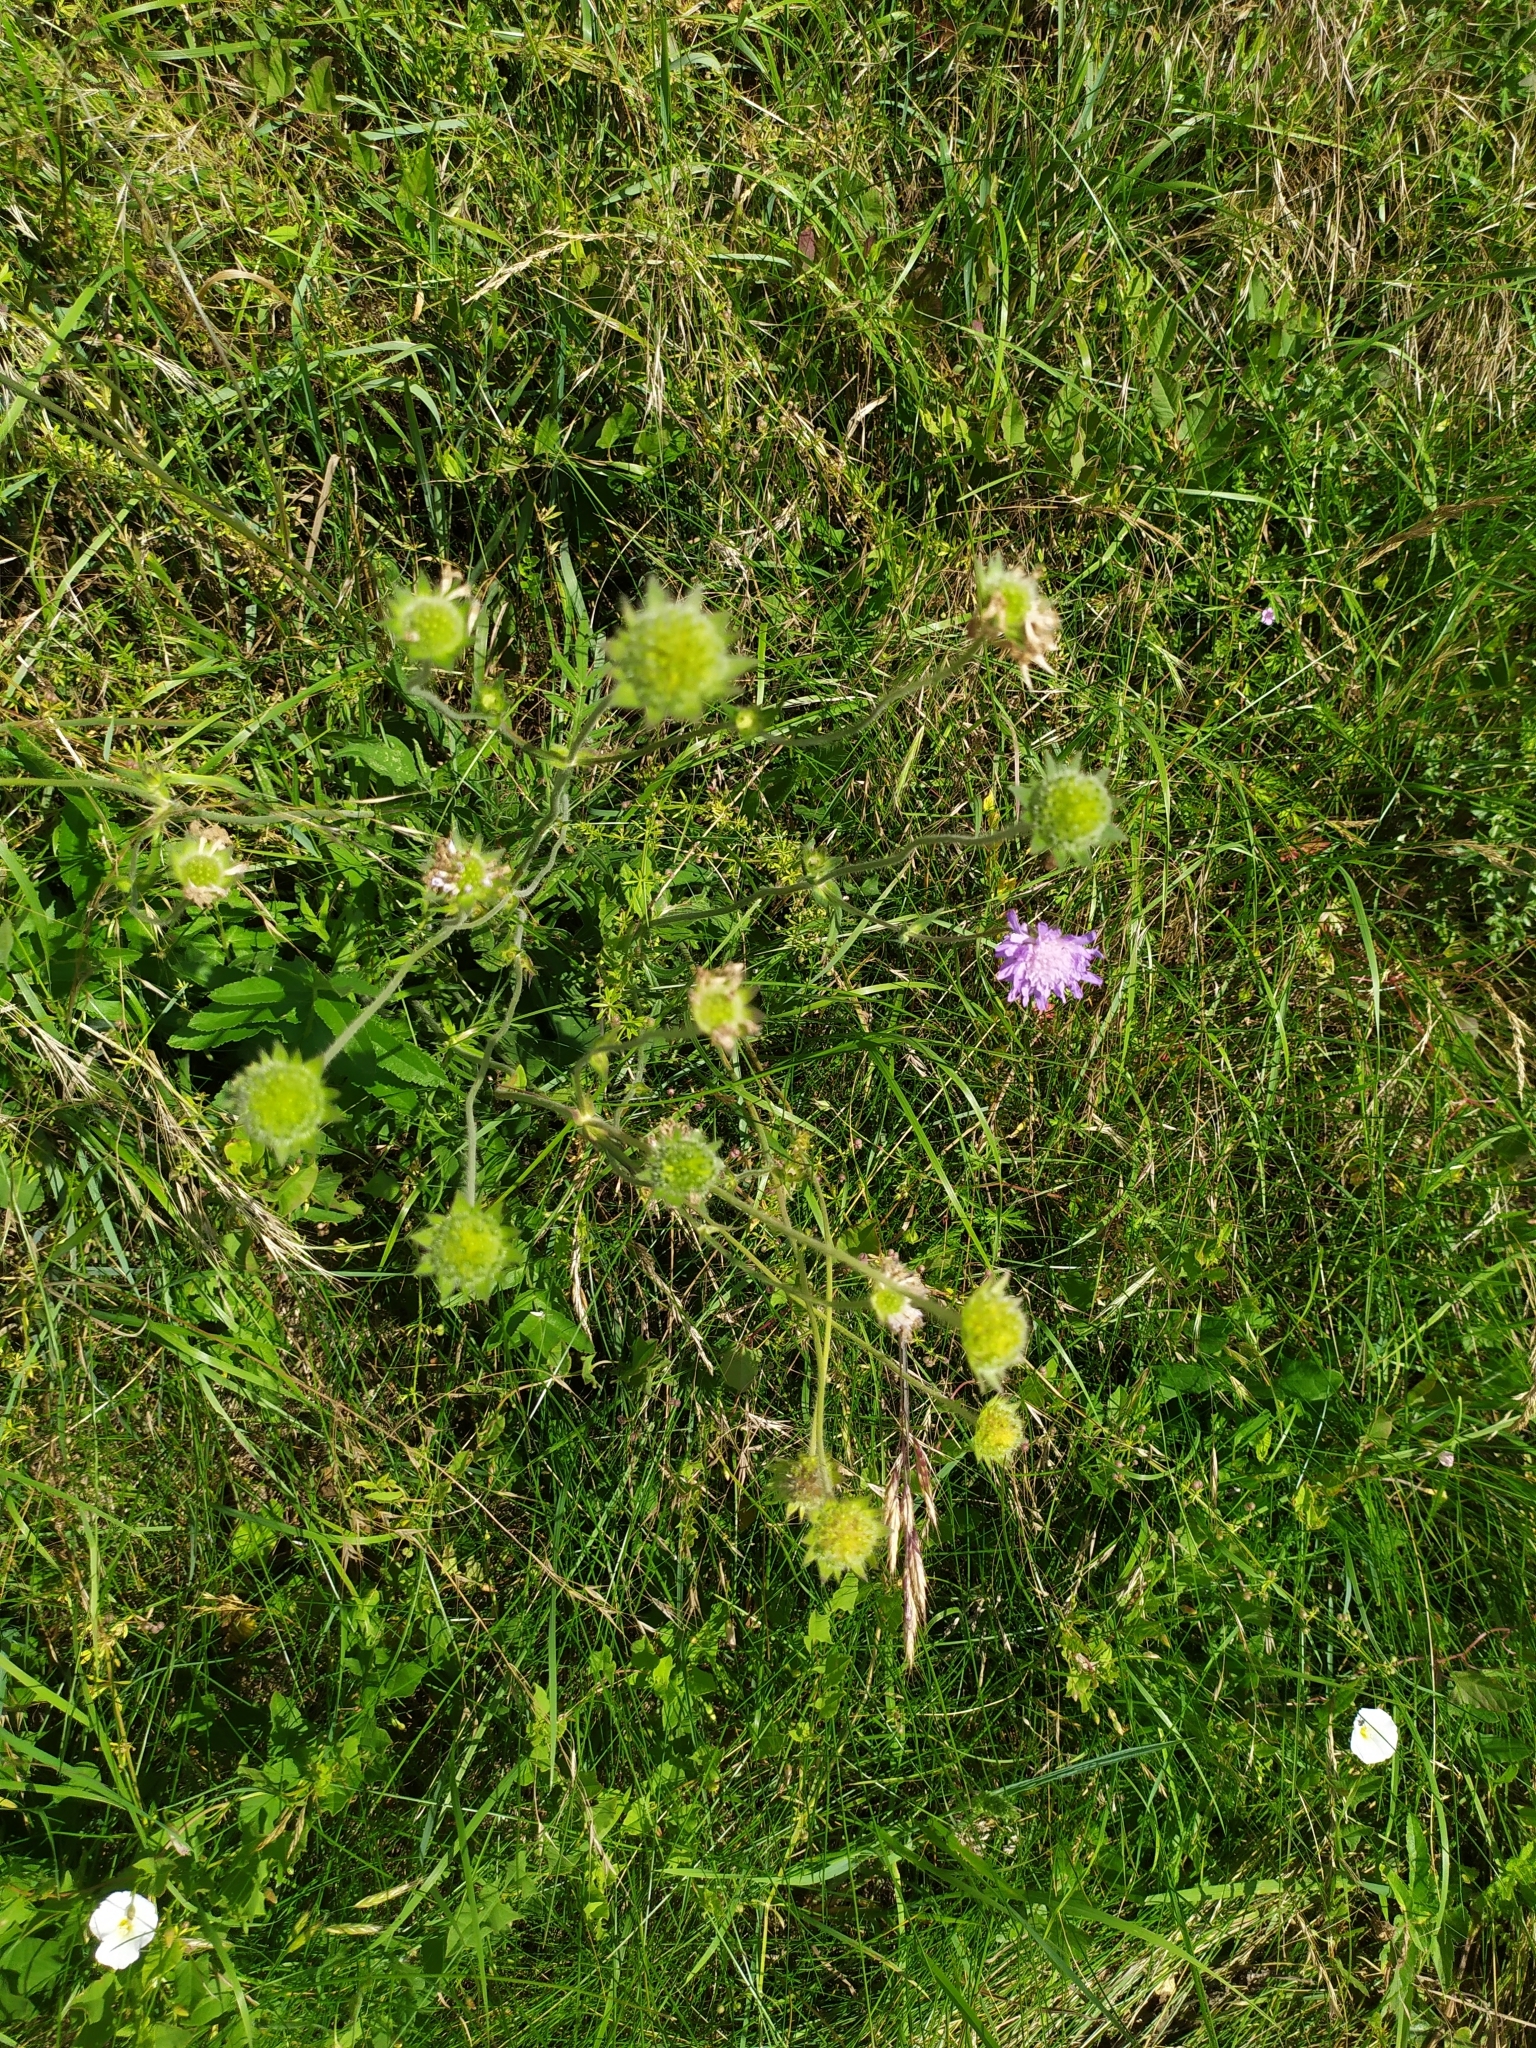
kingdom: Plantae
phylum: Tracheophyta
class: Magnoliopsida
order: Dipsacales
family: Caprifoliaceae
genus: Knautia
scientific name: Knautia arvensis
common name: Field scabiosa
